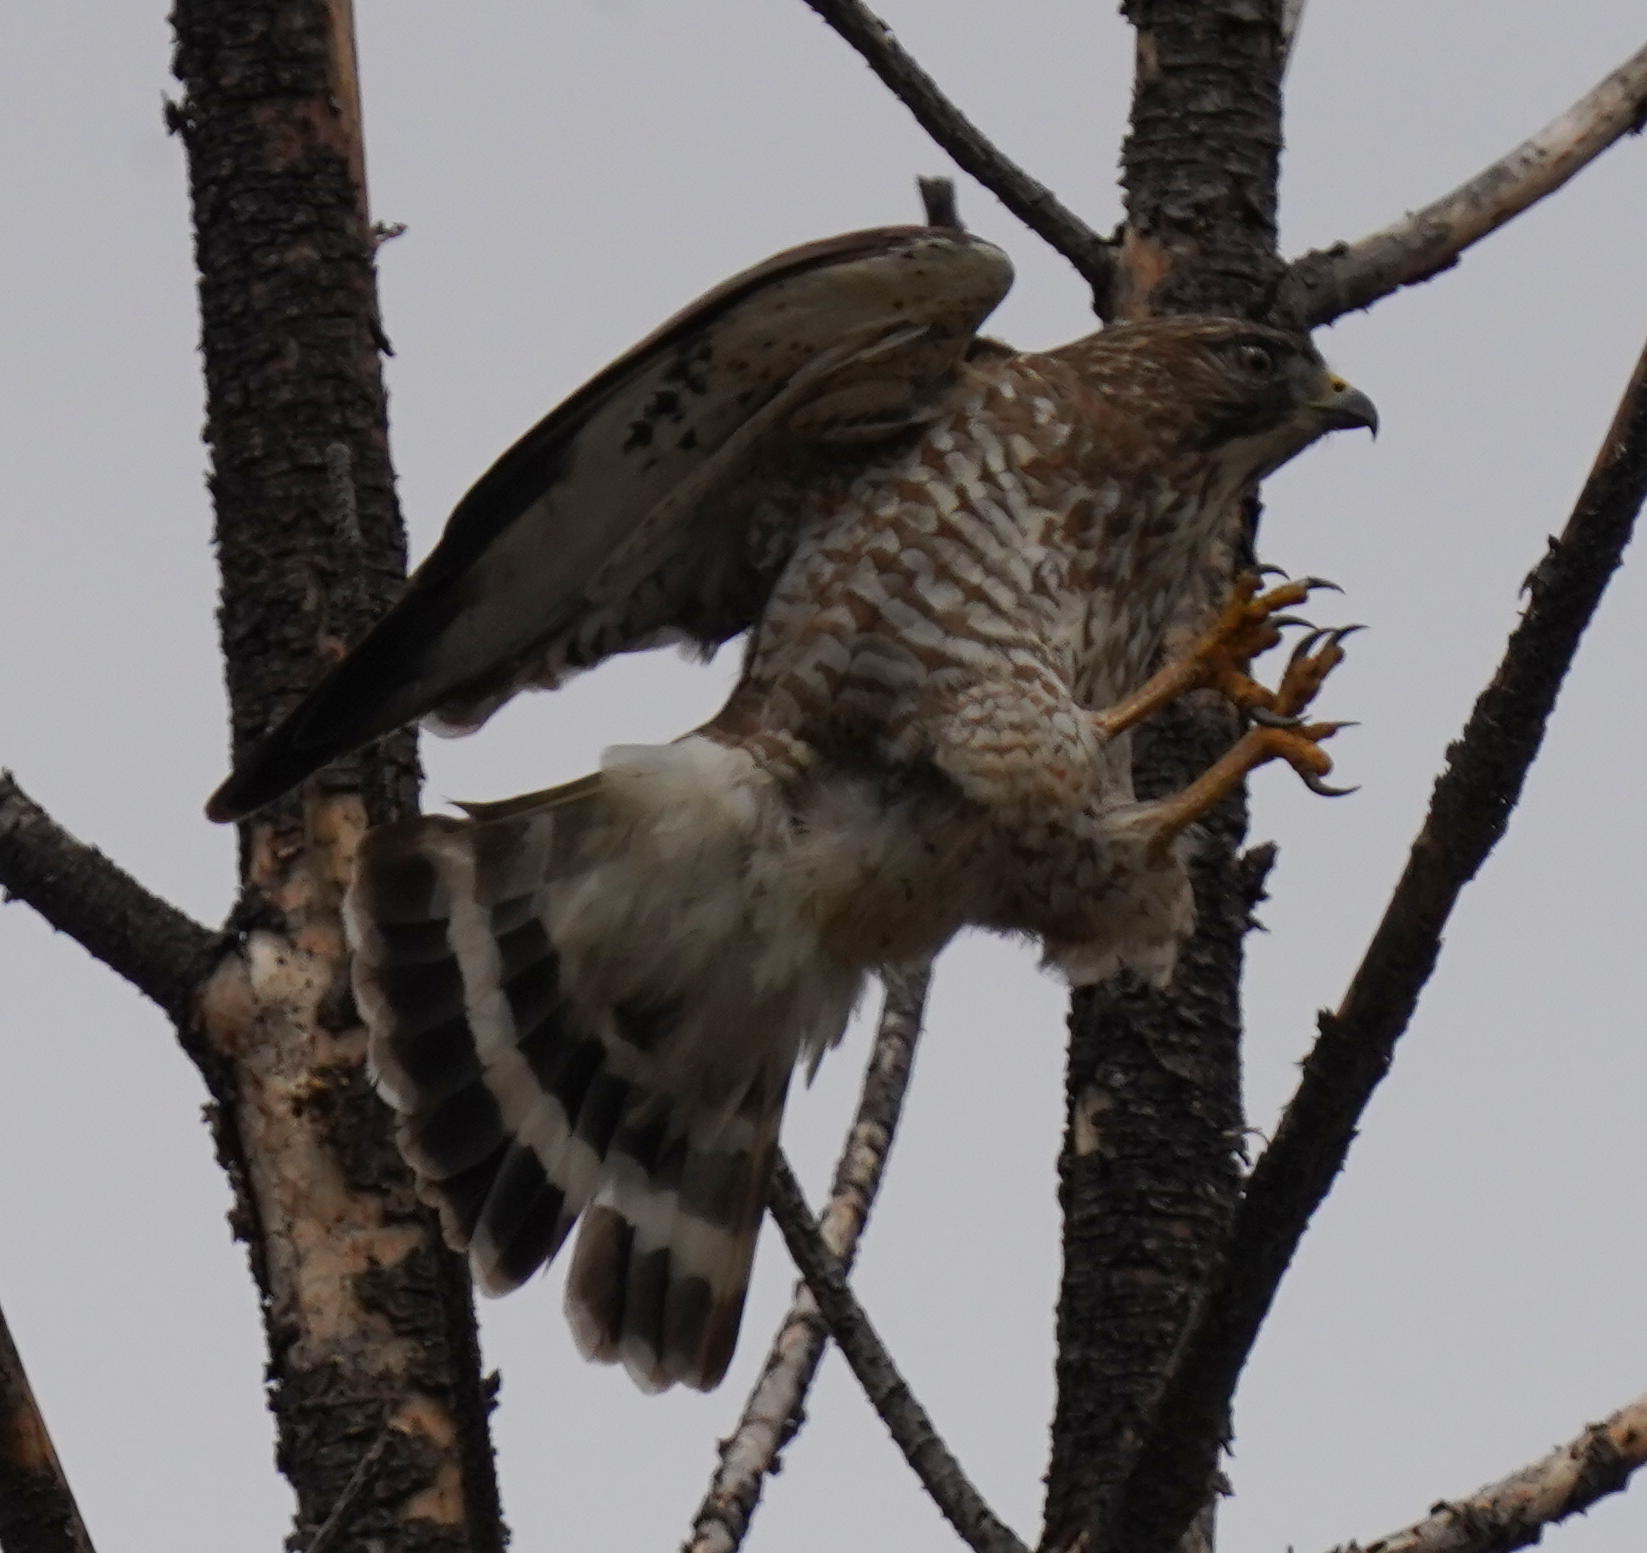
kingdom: Animalia
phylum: Chordata
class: Aves
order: Accipitriformes
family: Accipitridae
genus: Buteo
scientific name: Buteo platypterus
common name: Broad-winged hawk
